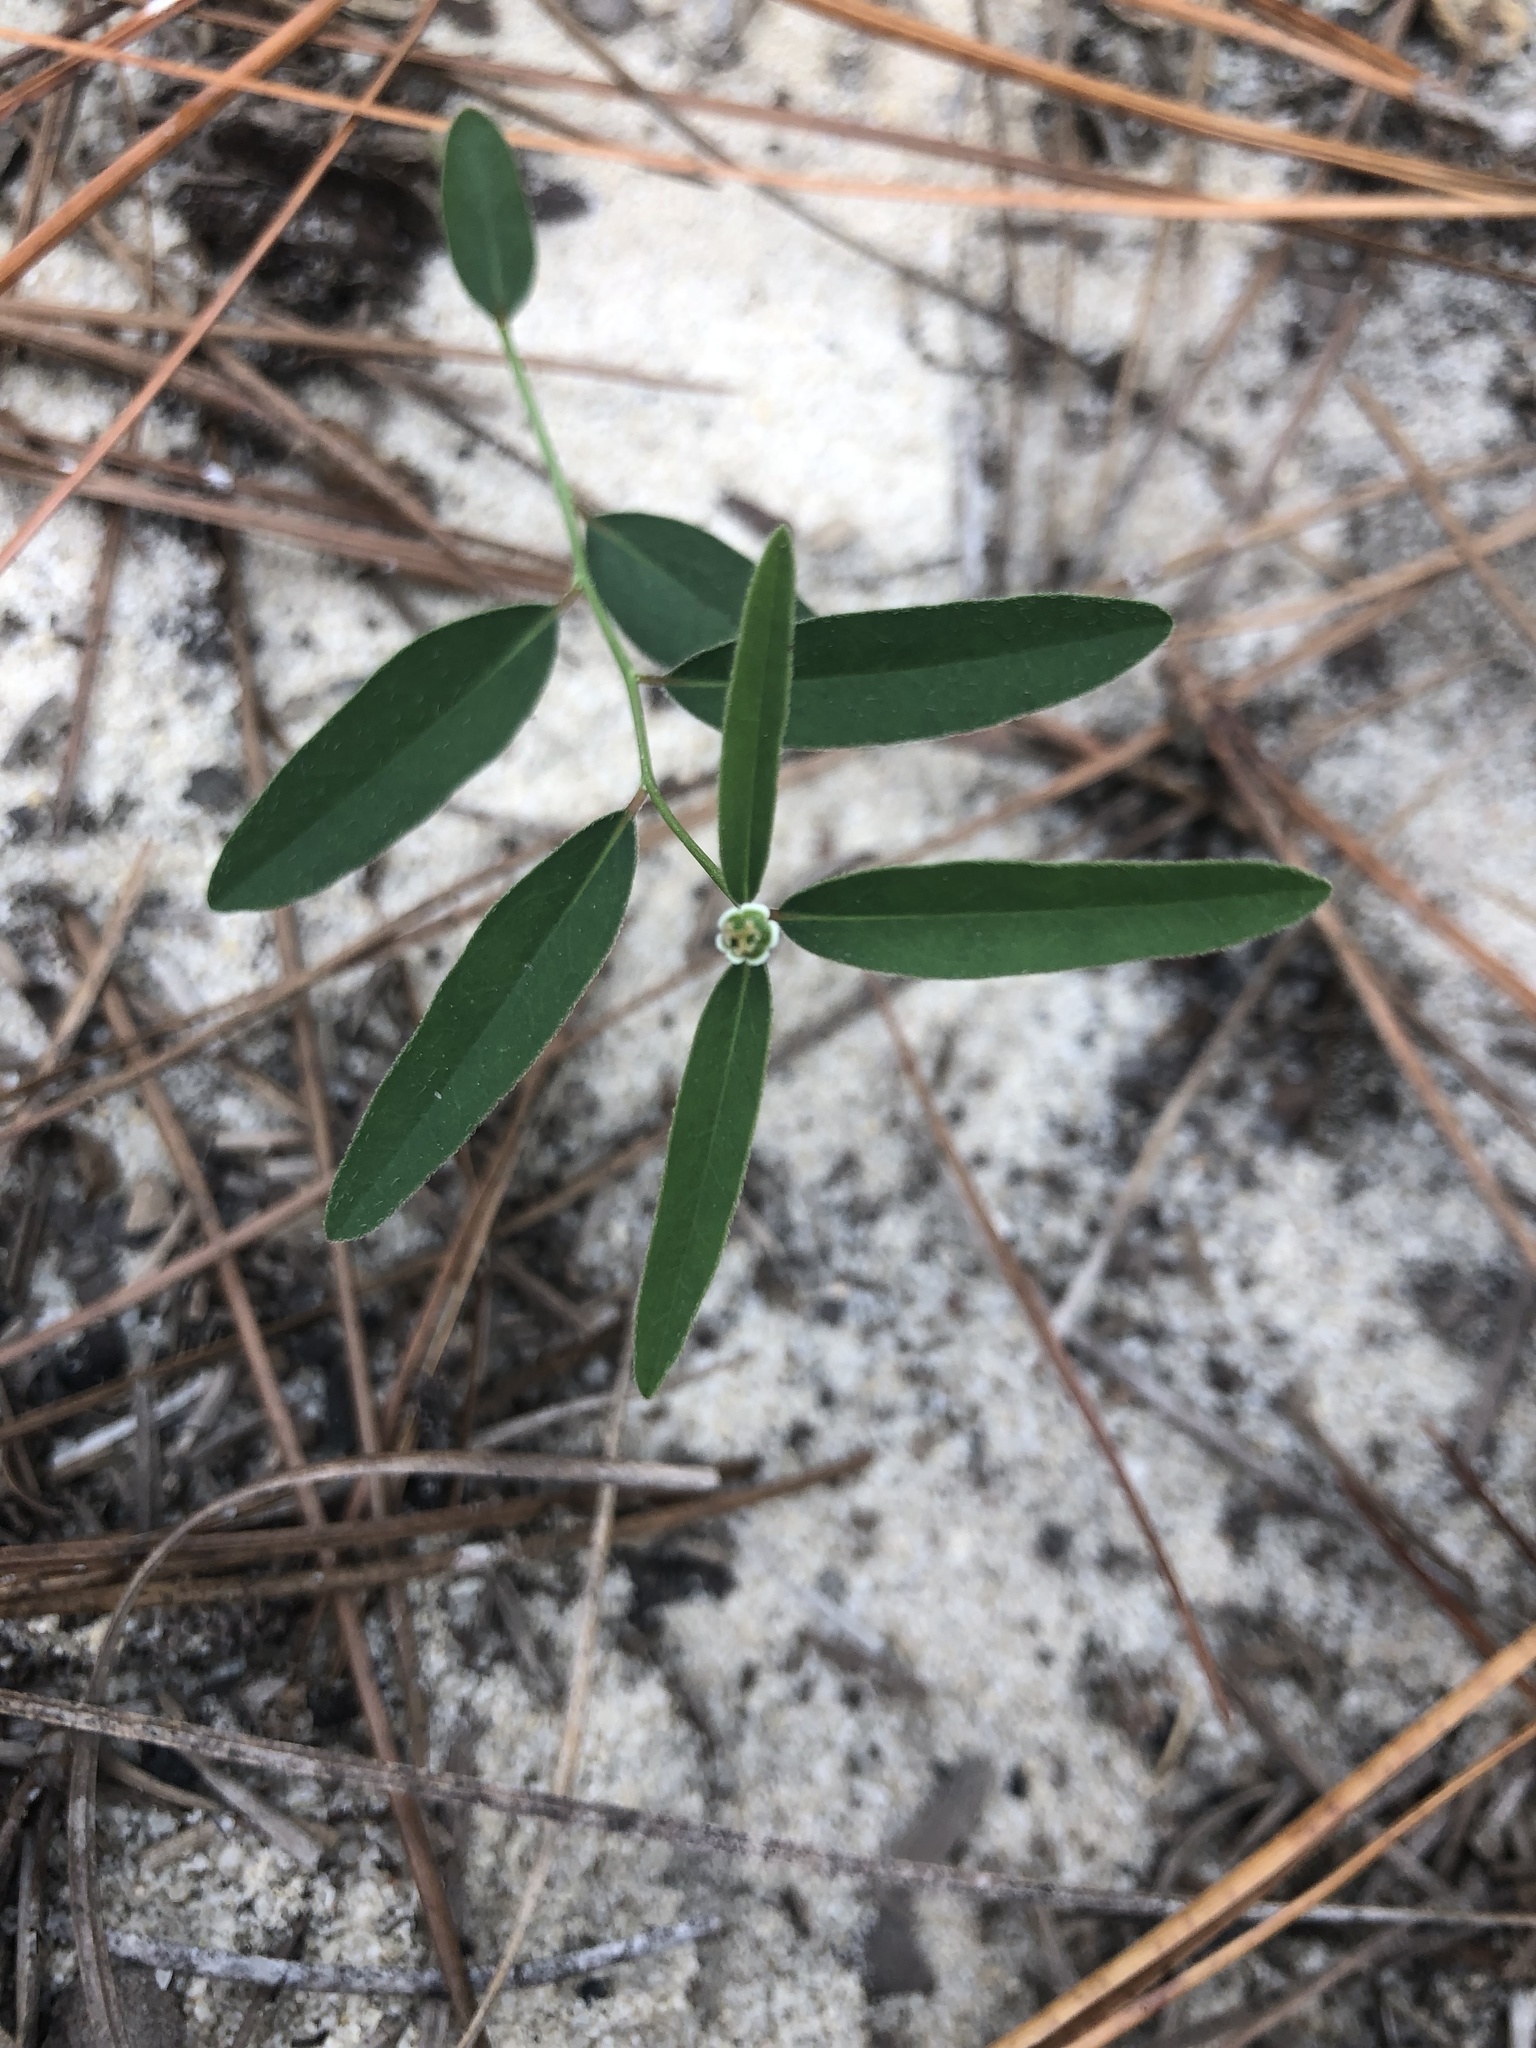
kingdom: Plantae
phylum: Tracheophyta
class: Magnoliopsida
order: Malpighiales
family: Euphorbiaceae
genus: Euphorbia
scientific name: Euphorbia curtisii
